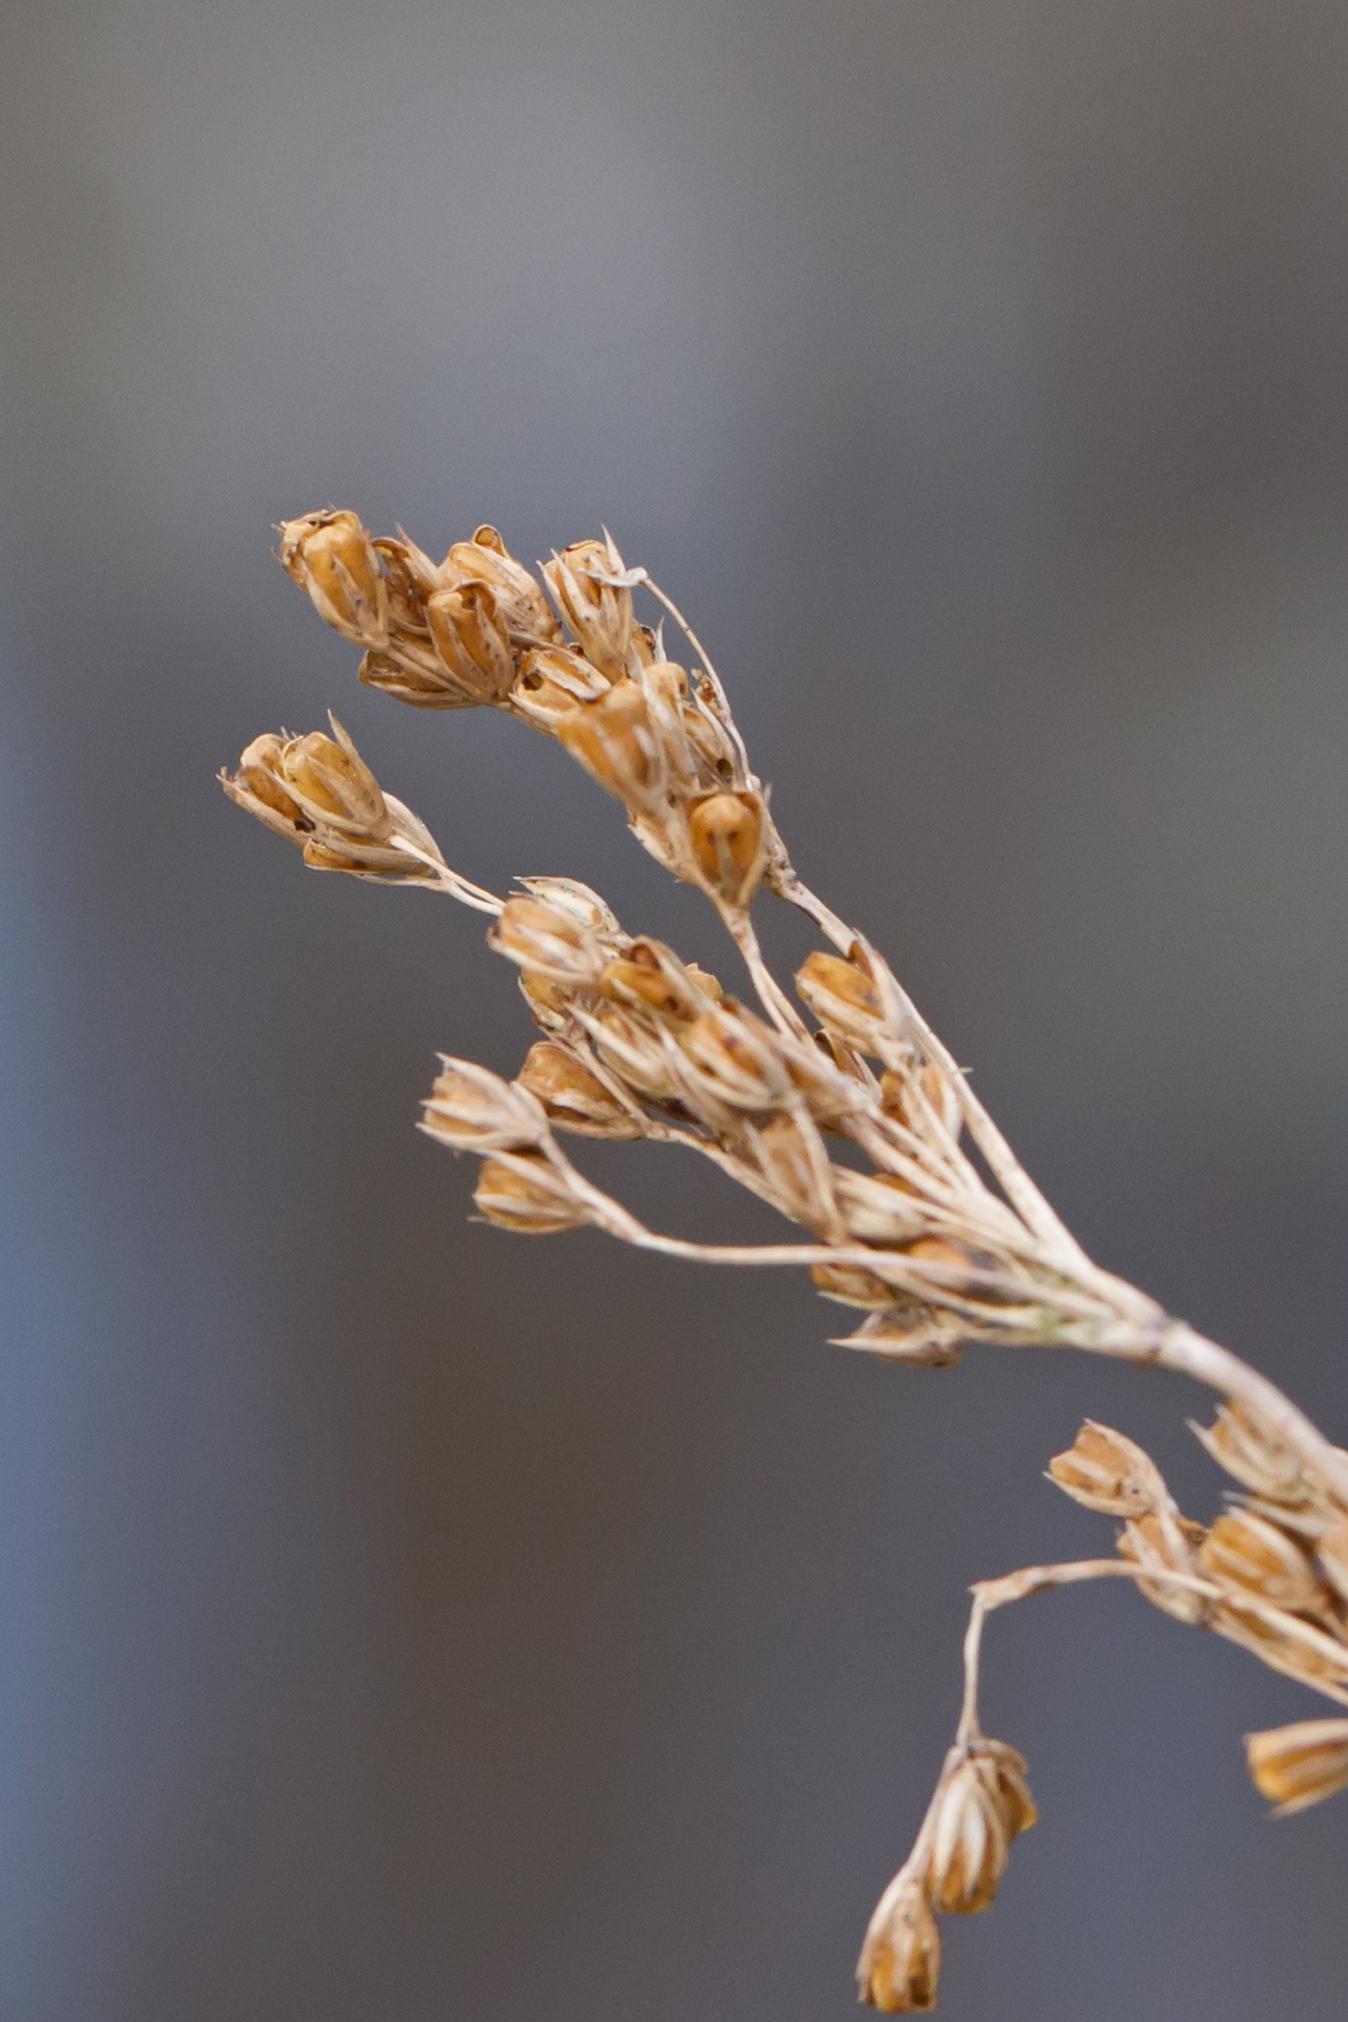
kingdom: Plantae
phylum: Tracheophyta
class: Liliopsida
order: Poales
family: Juncaceae
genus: Juncus
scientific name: Juncus effusus
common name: Soft rush
